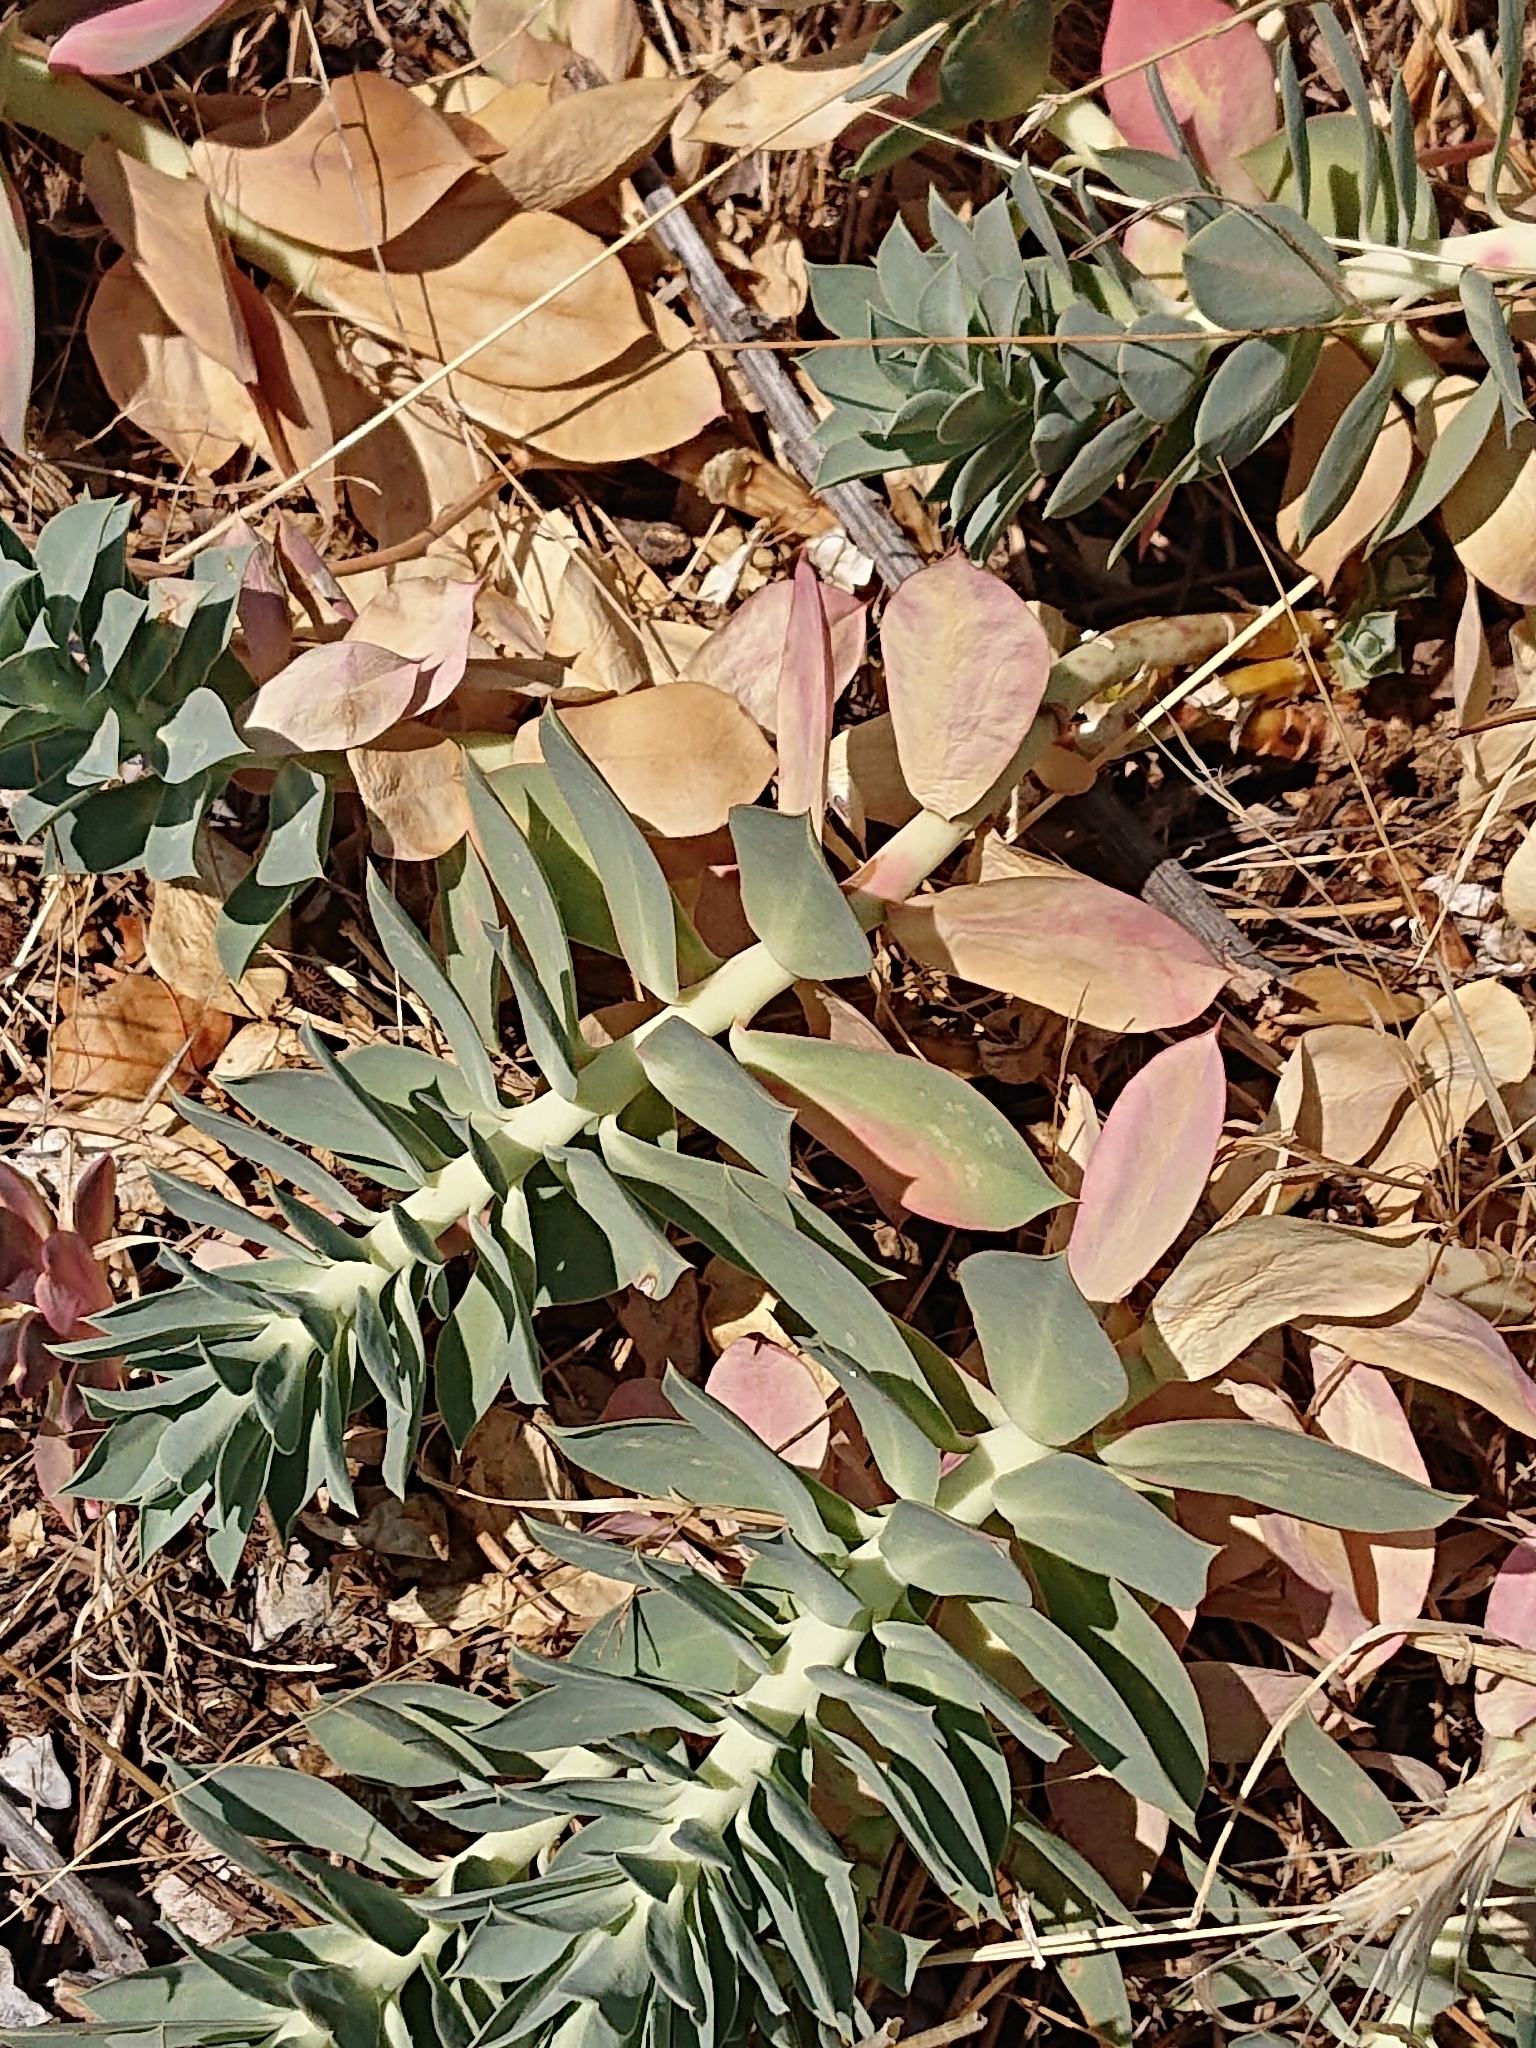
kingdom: Plantae
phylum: Tracheophyta
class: Magnoliopsida
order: Malpighiales
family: Euphorbiaceae
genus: Euphorbia
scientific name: Euphorbia myrsinites
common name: Myrtle spurge
